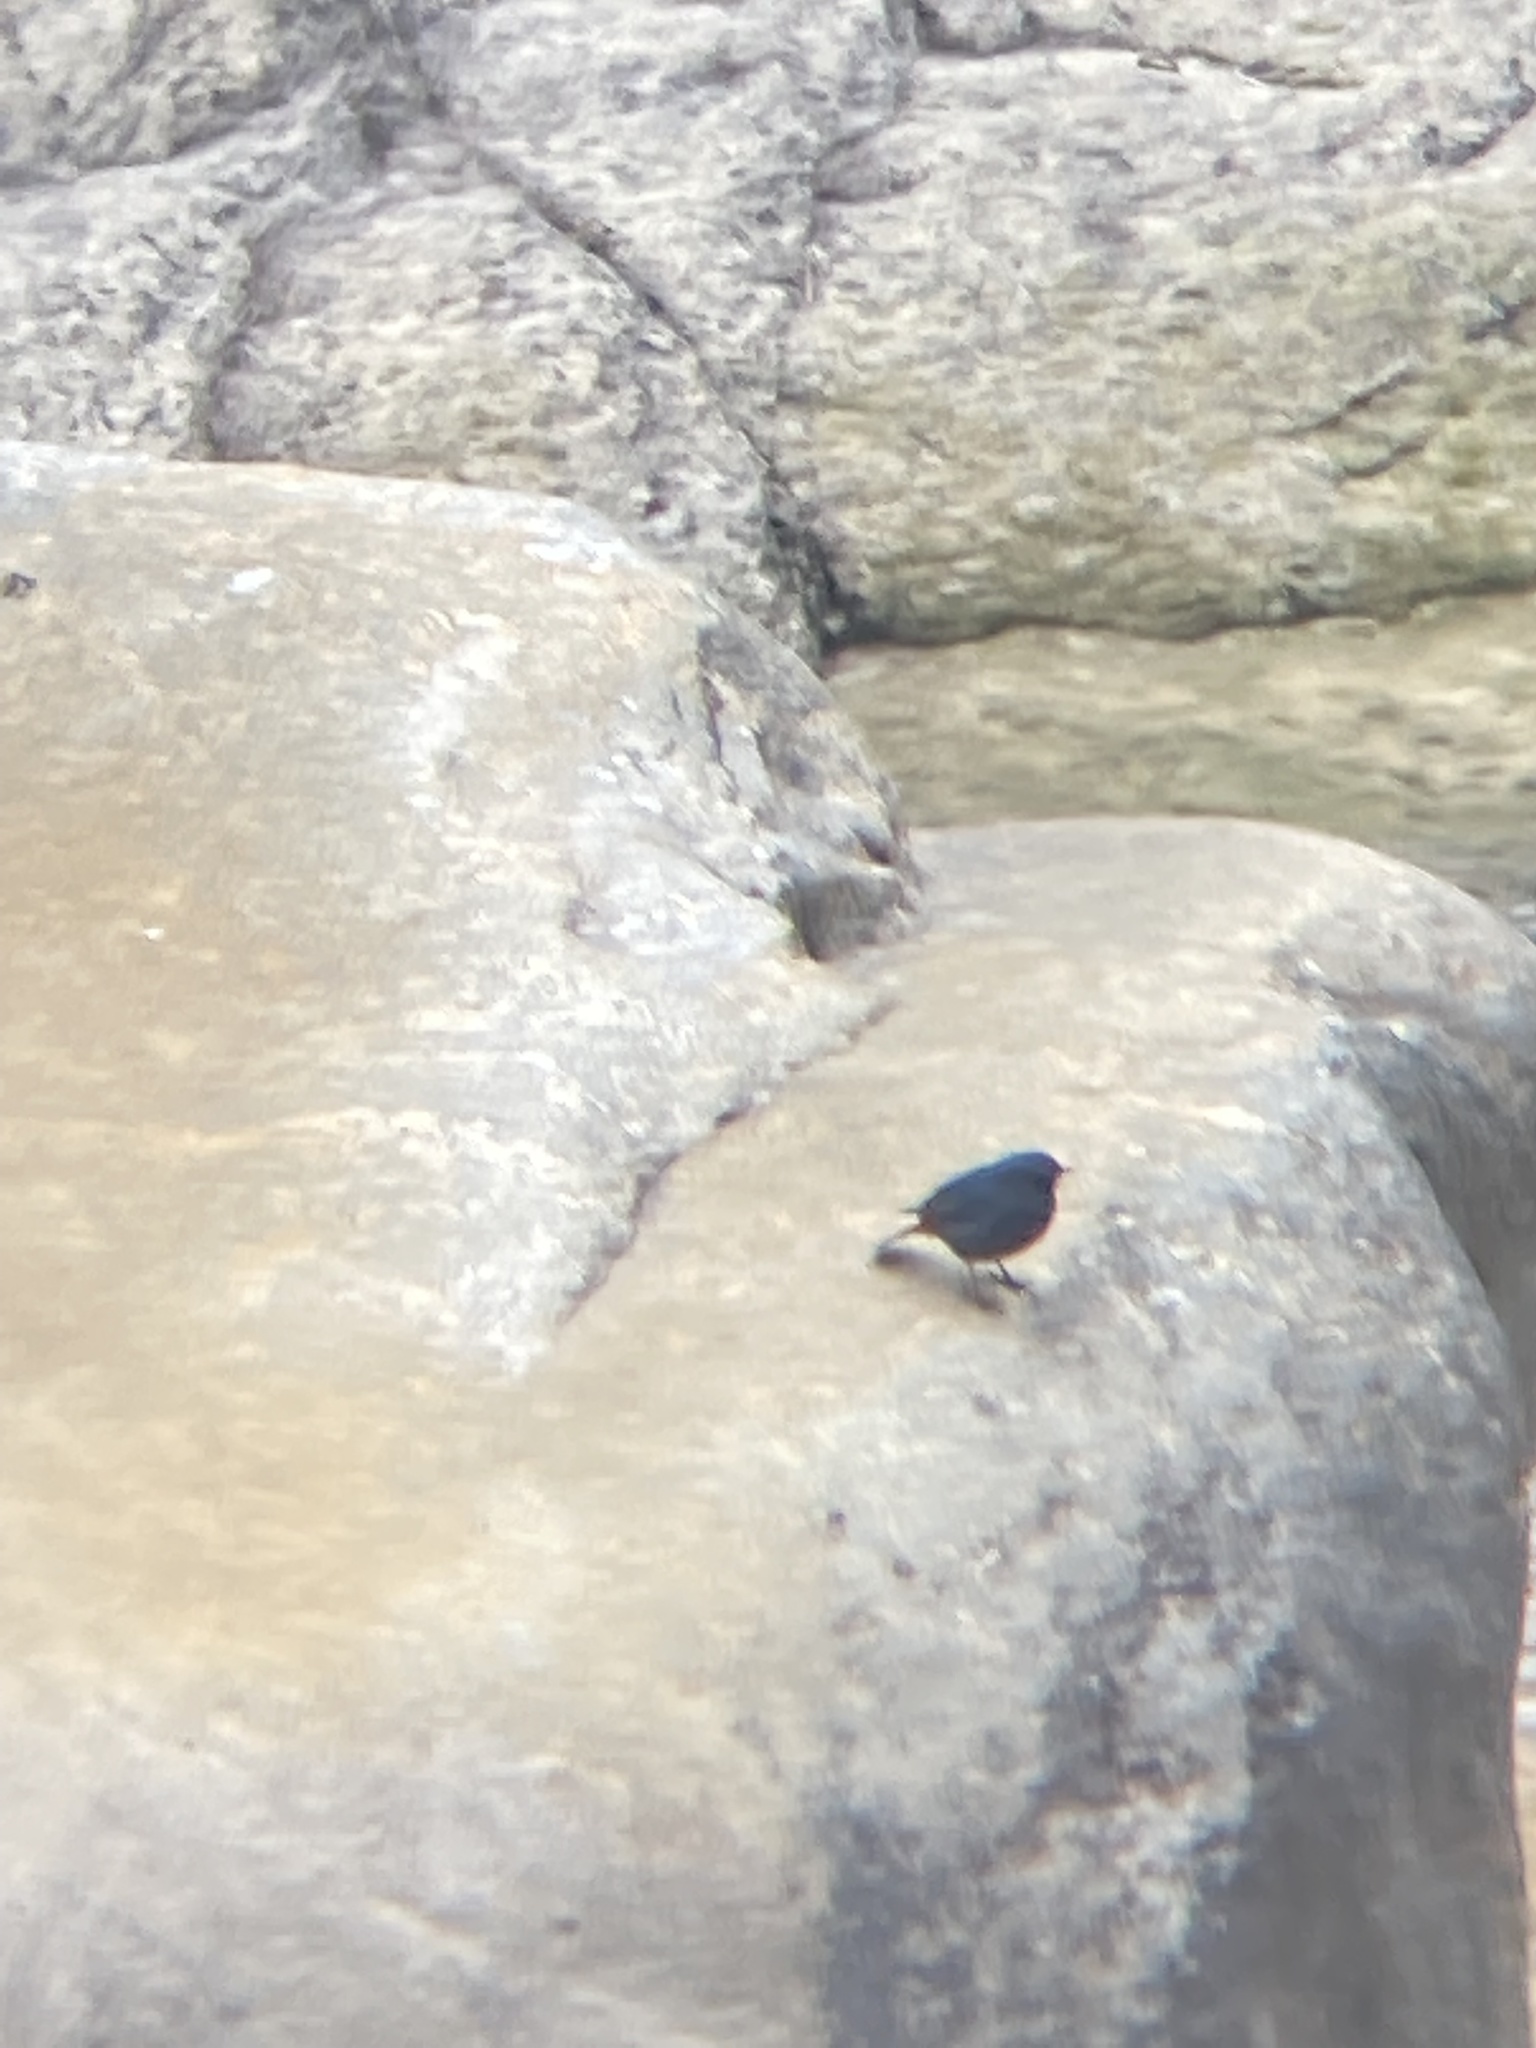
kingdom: Animalia
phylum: Chordata
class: Aves
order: Passeriformes
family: Muscicapidae
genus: Phoenicurus
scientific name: Phoenicurus fuliginosus
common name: Plumbeous water redstart
